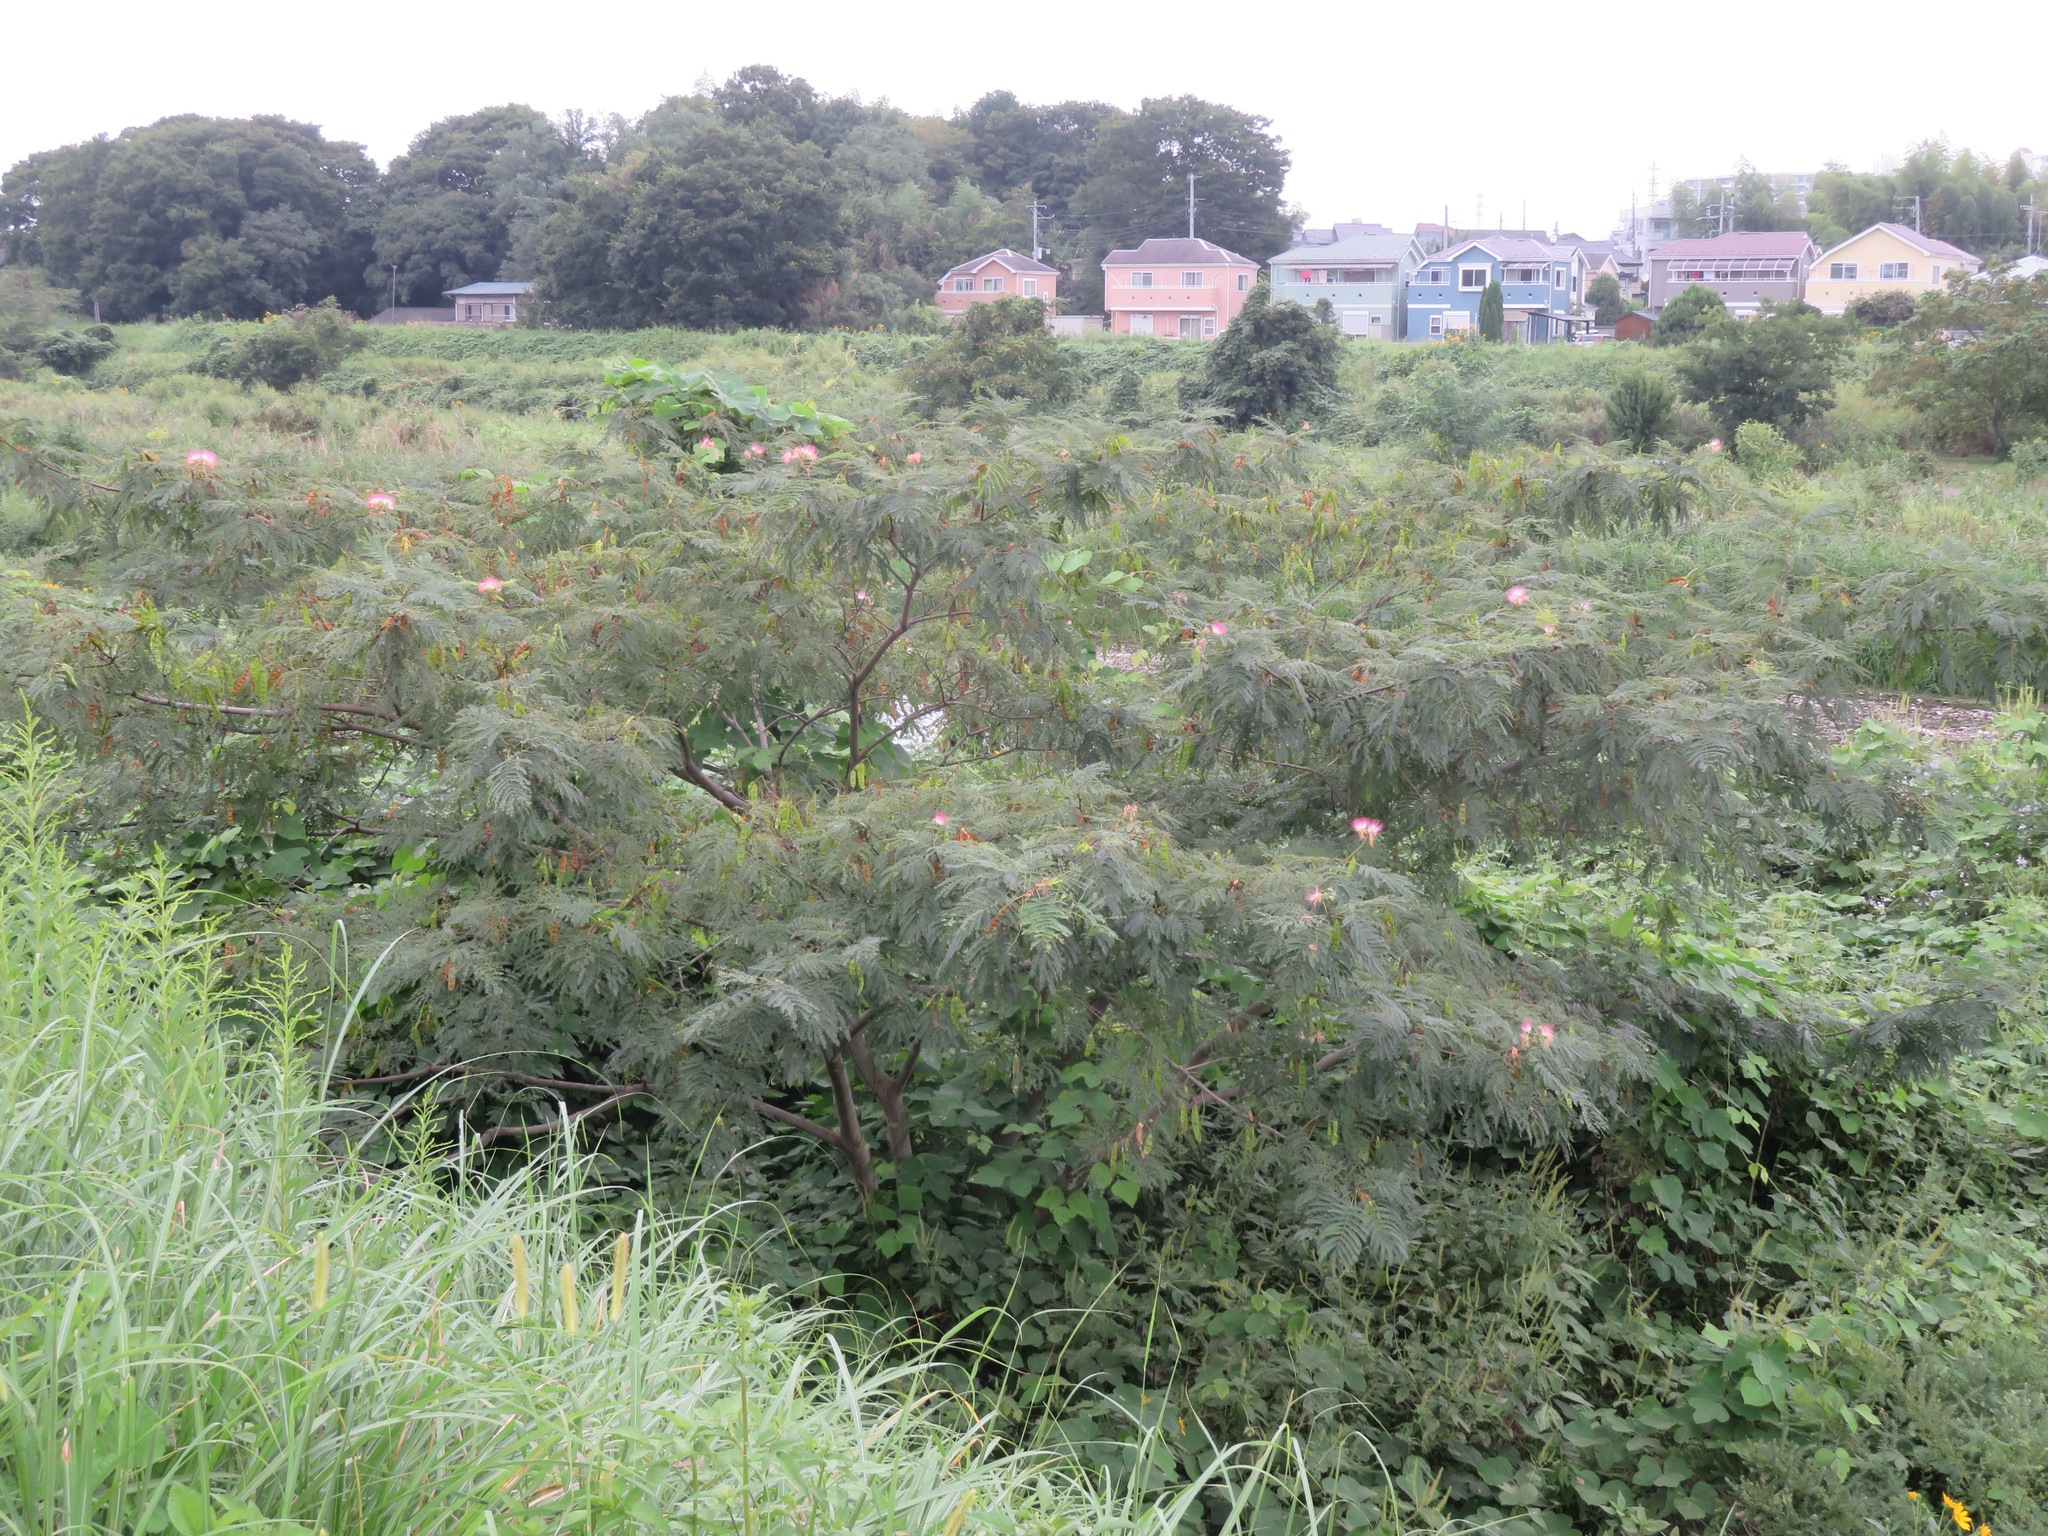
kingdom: Plantae
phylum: Tracheophyta
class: Magnoliopsida
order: Fabales
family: Fabaceae
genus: Albizia
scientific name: Albizia julibrissin
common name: Silktree
